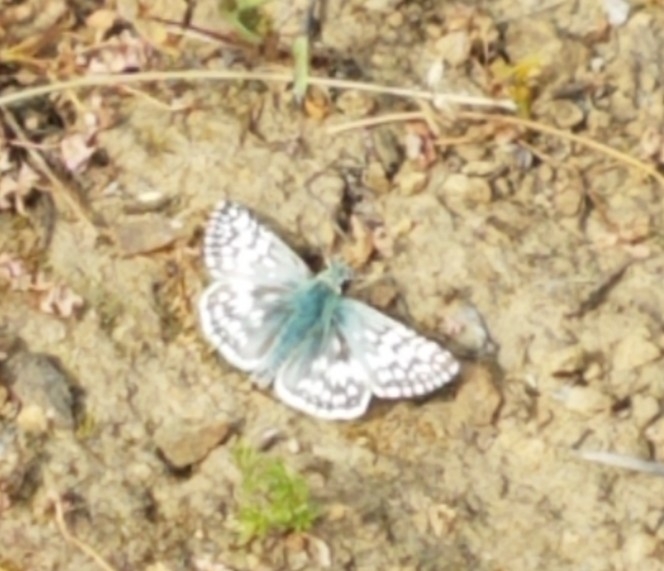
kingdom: Animalia
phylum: Arthropoda
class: Insecta
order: Lepidoptera
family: Hesperiidae
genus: Burnsius
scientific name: Burnsius communis
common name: Common checkered-skipper
